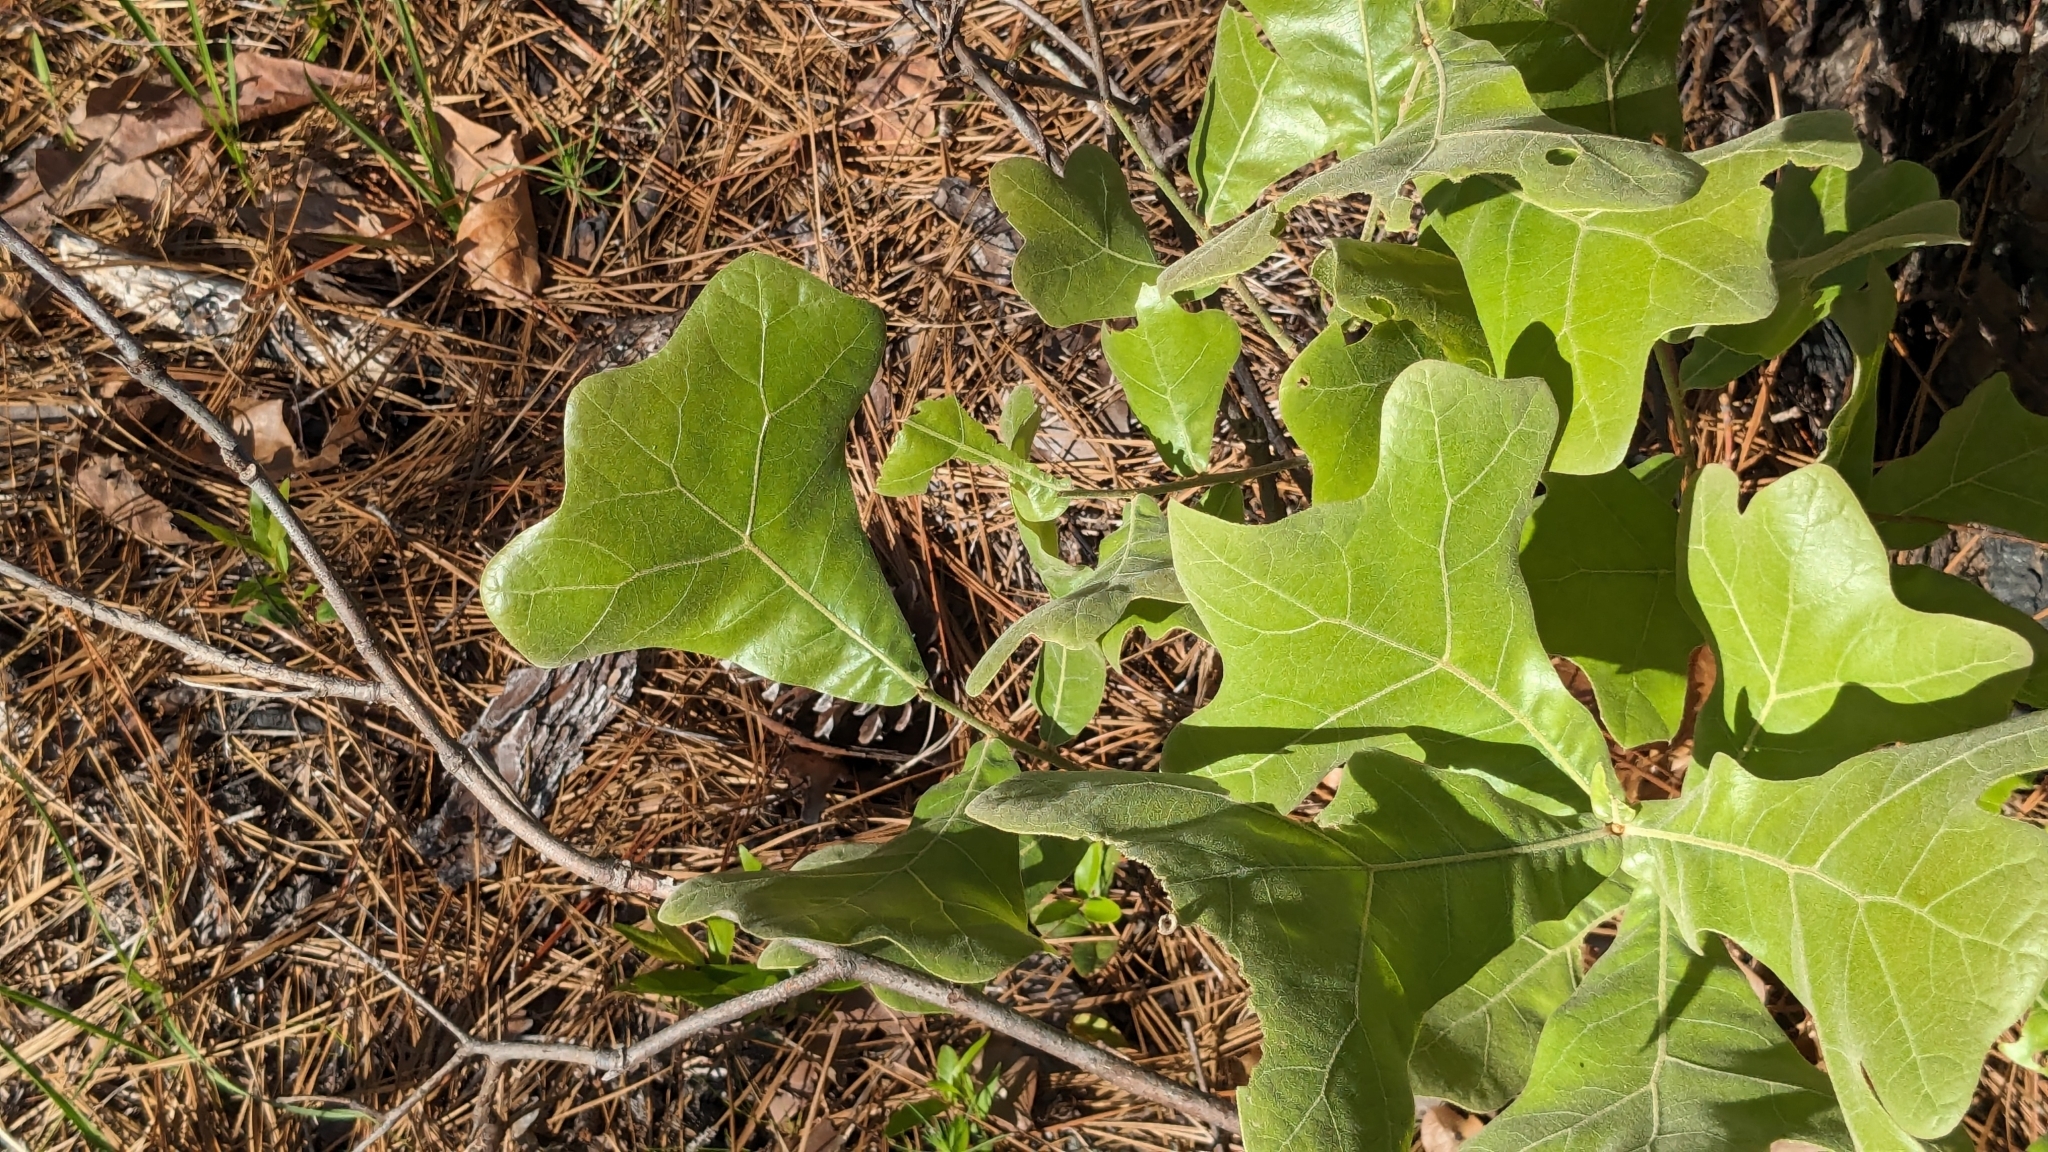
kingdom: Plantae
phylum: Tracheophyta
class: Magnoliopsida
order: Fagales
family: Fagaceae
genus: Quercus
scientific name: Quercus marilandica
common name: Blackjack oak
